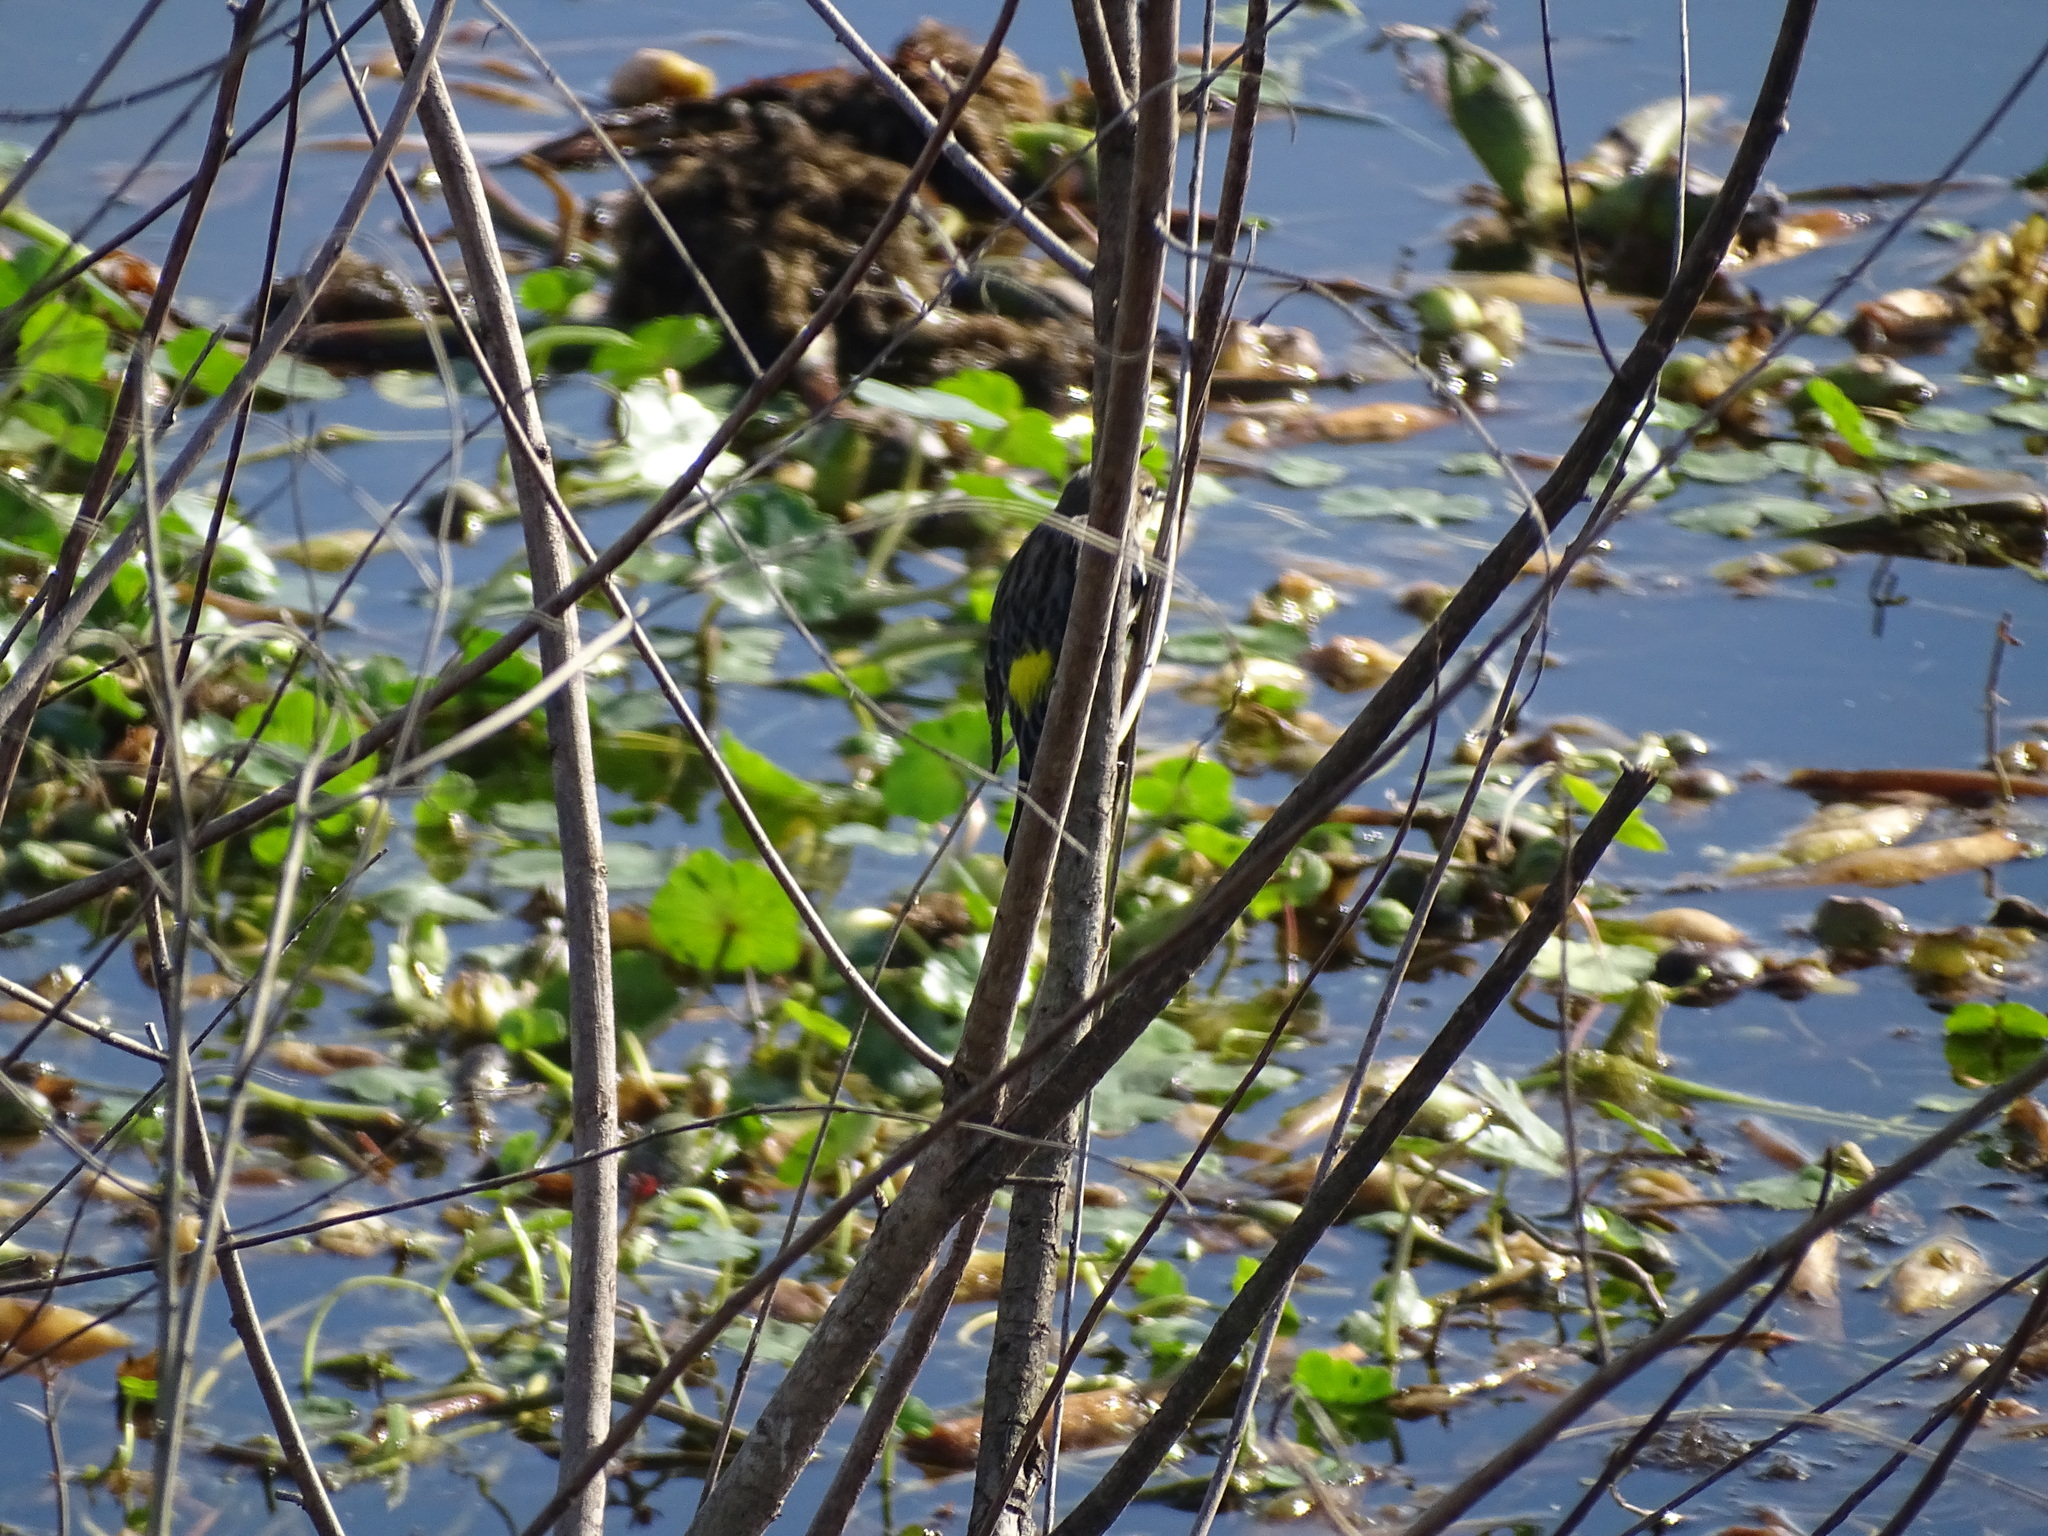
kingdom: Animalia
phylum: Chordata
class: Aves
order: Passeriformes
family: Parulidae
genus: Setophaga
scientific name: Setophaga coronata
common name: Myrtle warbler
